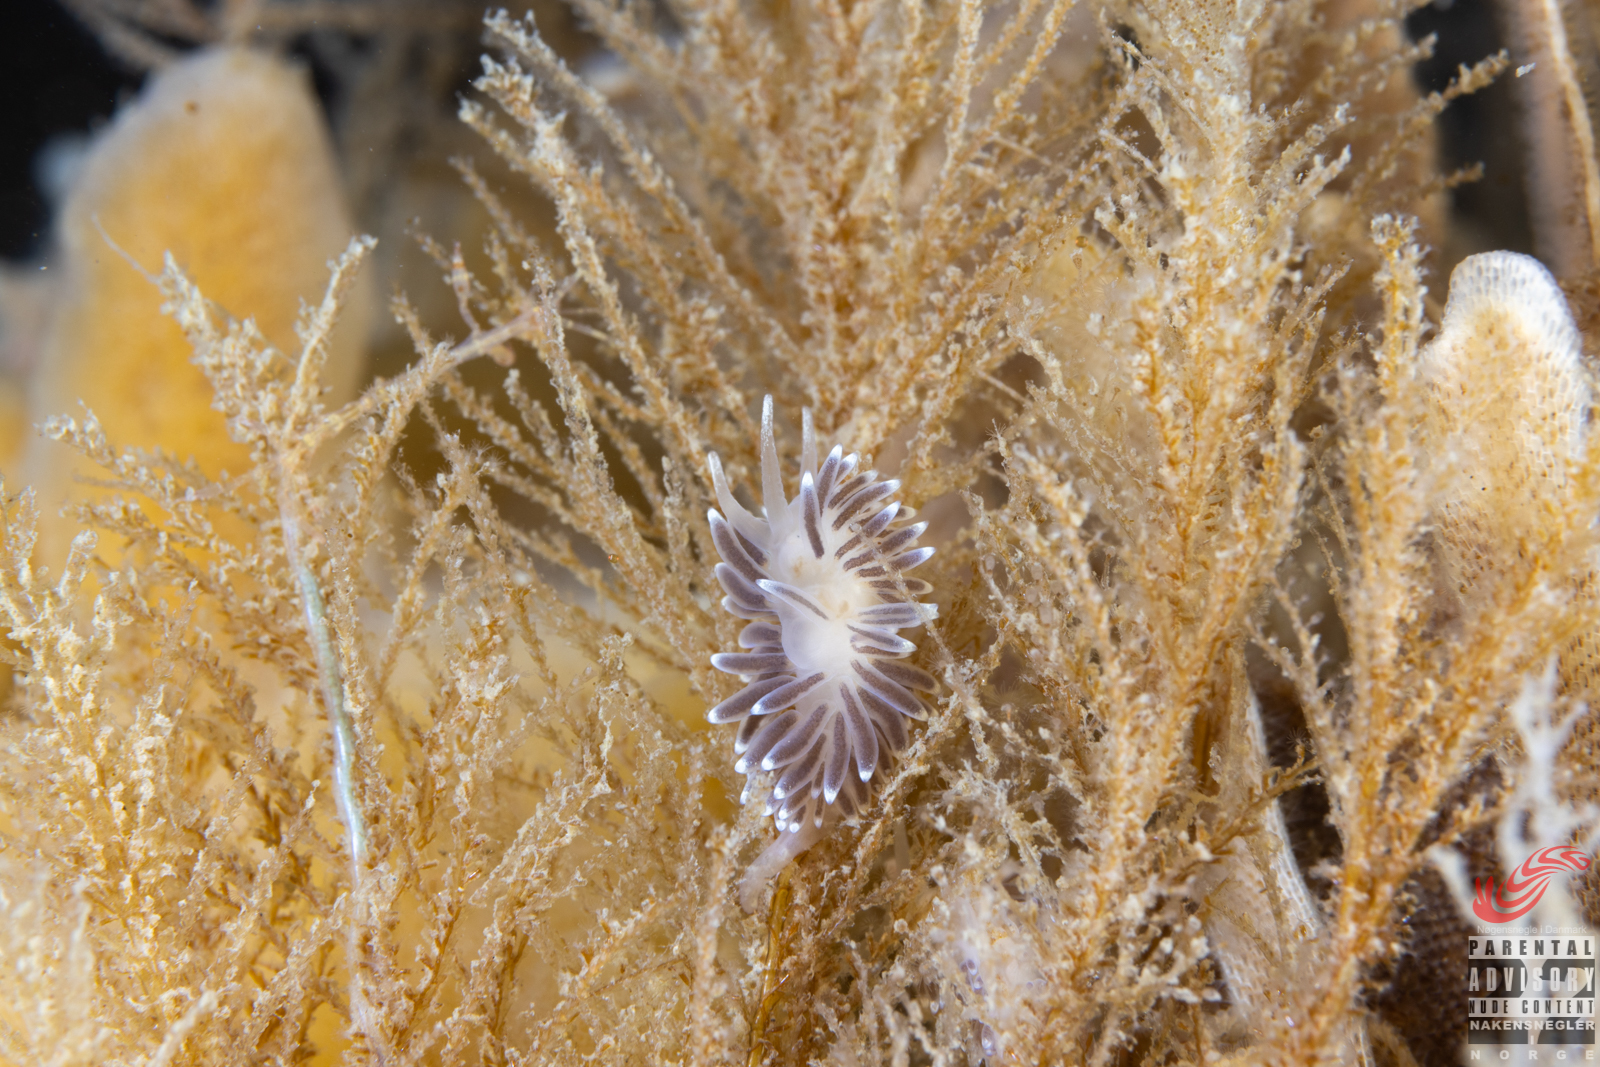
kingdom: Animalia
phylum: Mollusca
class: Gastropoda
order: Nudibranchia
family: Cuthonellidae
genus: Cuthonella
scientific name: Cuthonella concinna
